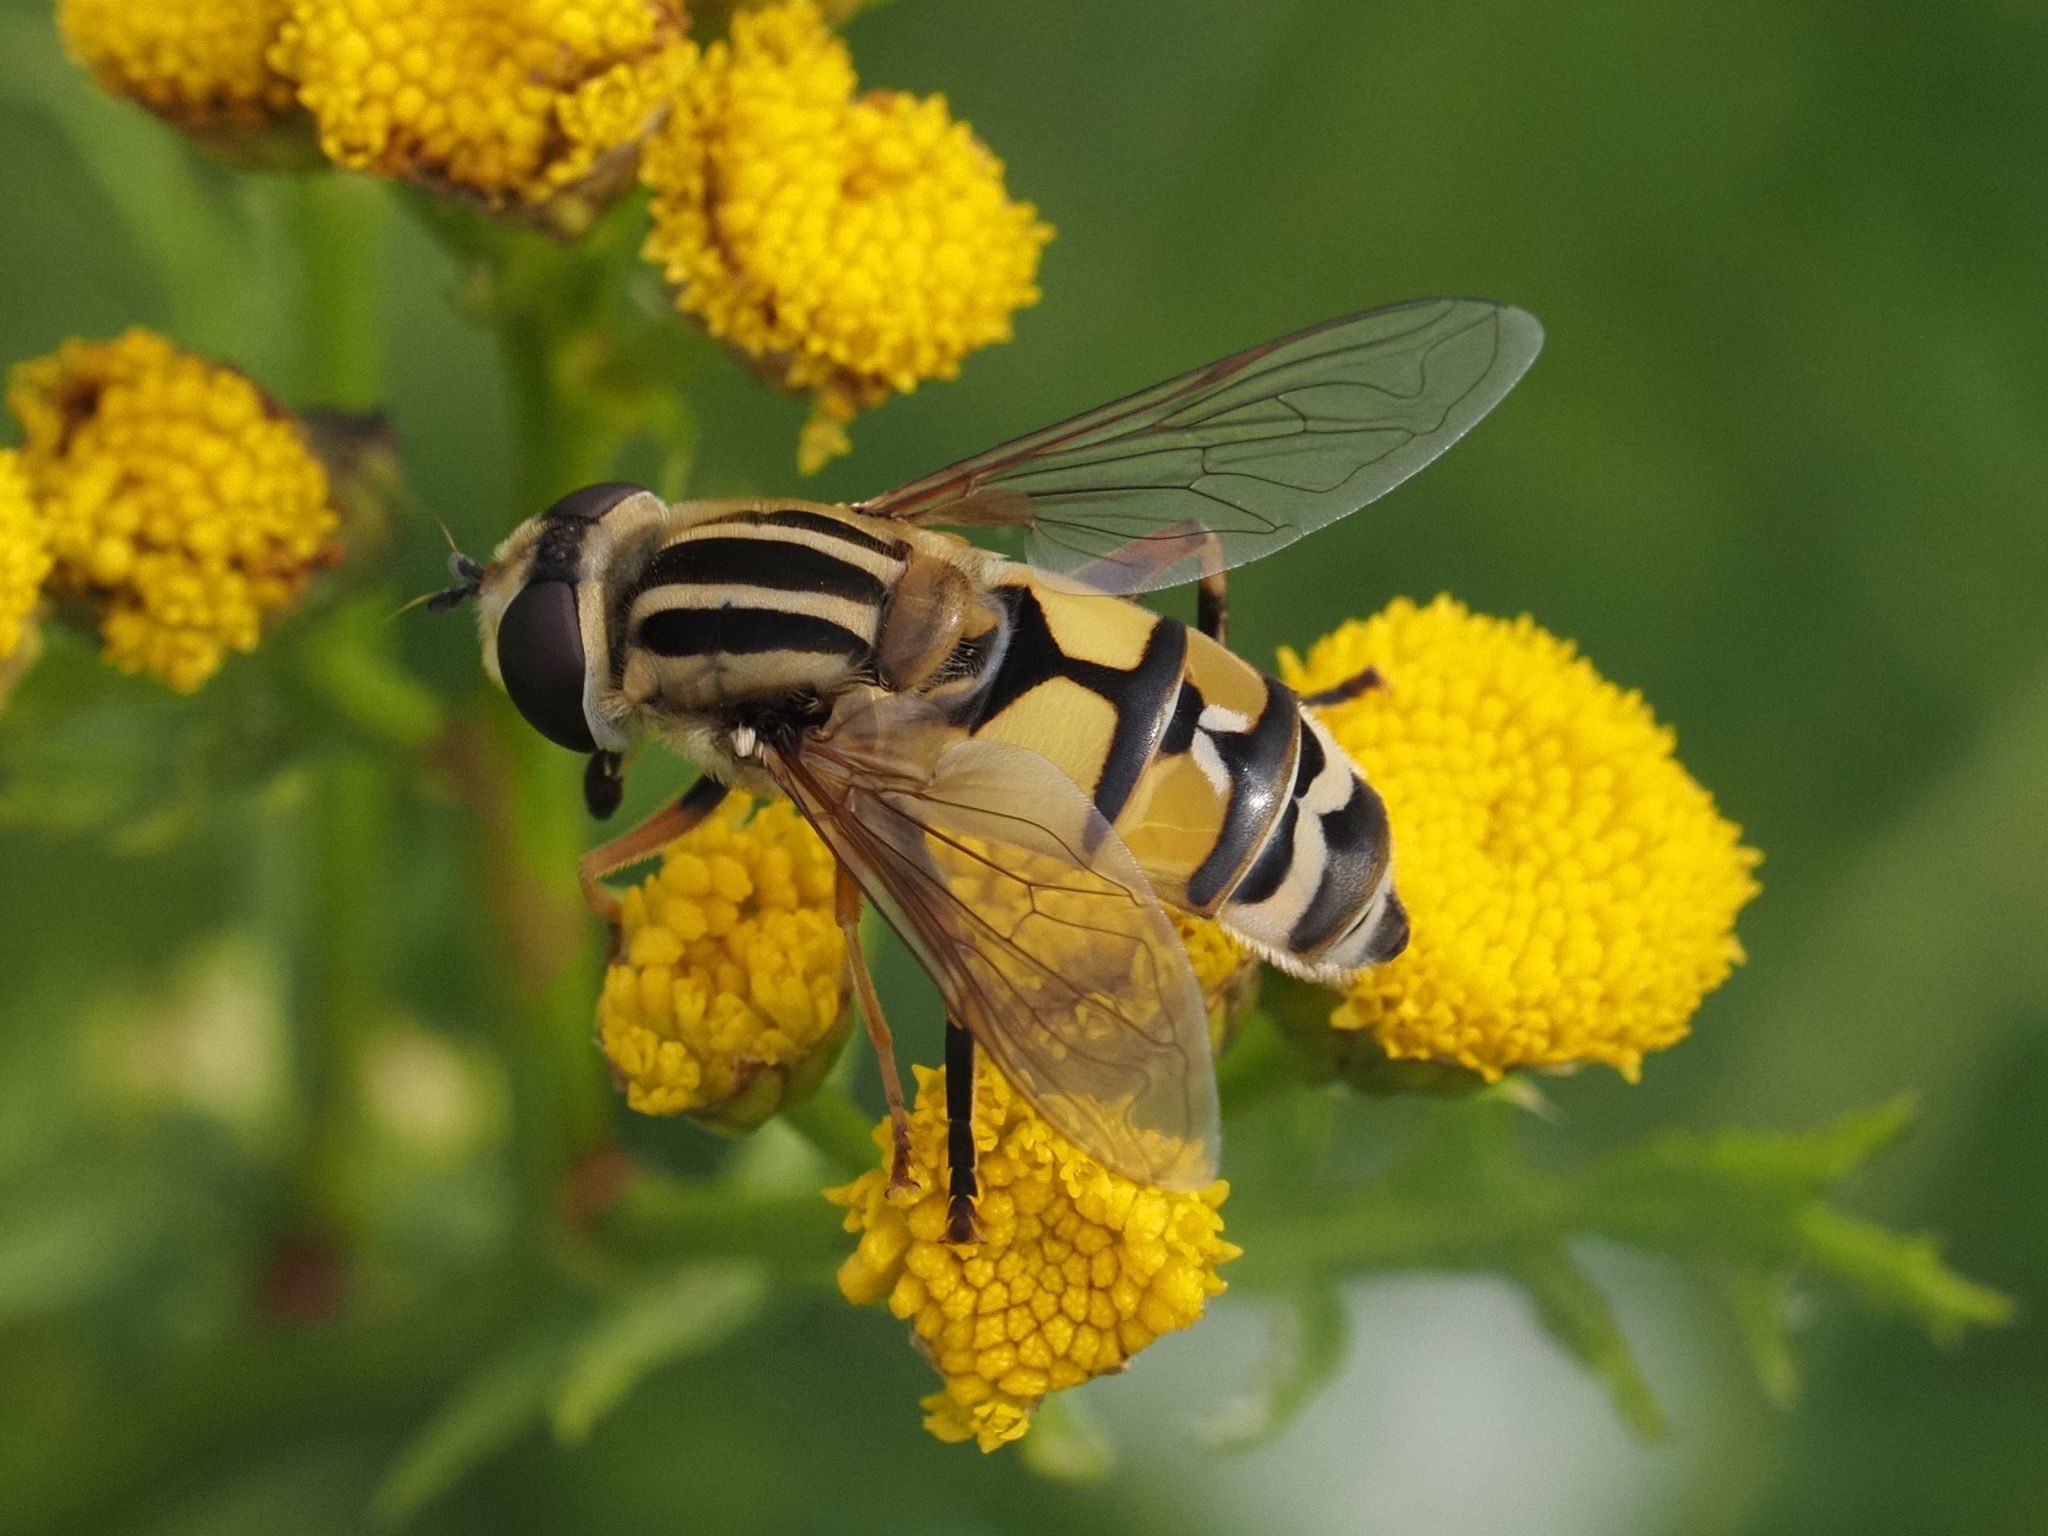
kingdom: Animalia
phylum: Arthropoda
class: Insecta
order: Diptera
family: Syrphidae
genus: Helophilus
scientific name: Helophilus trivittatus
